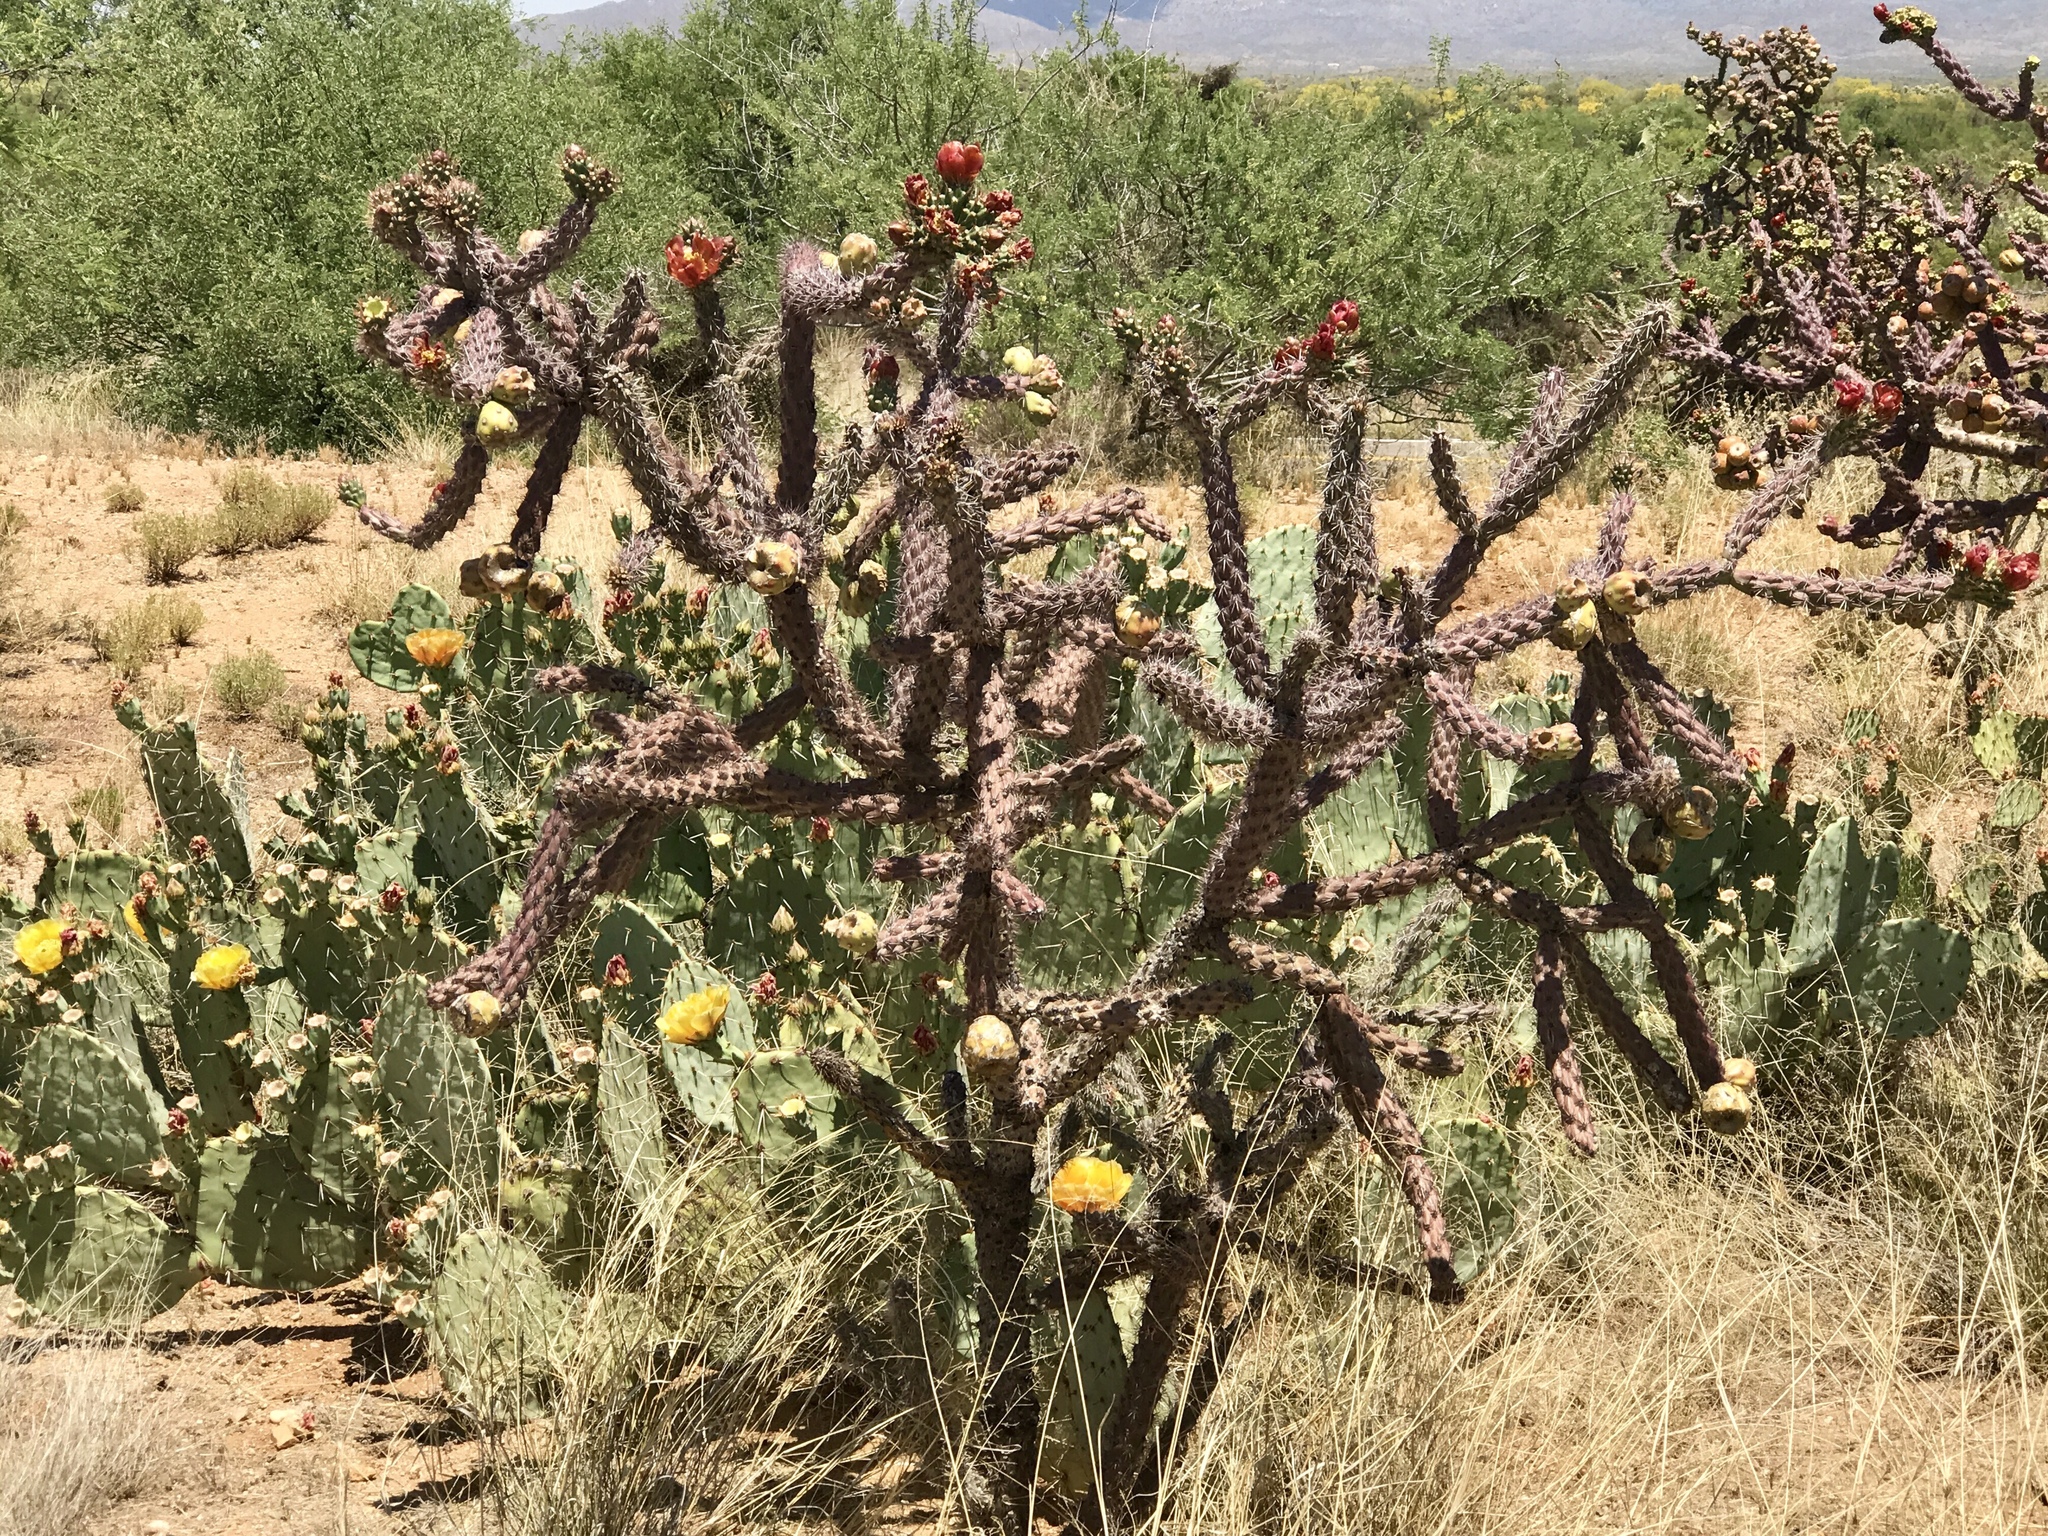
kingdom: Plantae
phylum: Tracheophyta
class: Magnoliopsida
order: Caryophyllales
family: Cactaceae
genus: Cylindropuntia
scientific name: Cylindropuntia thurberi
